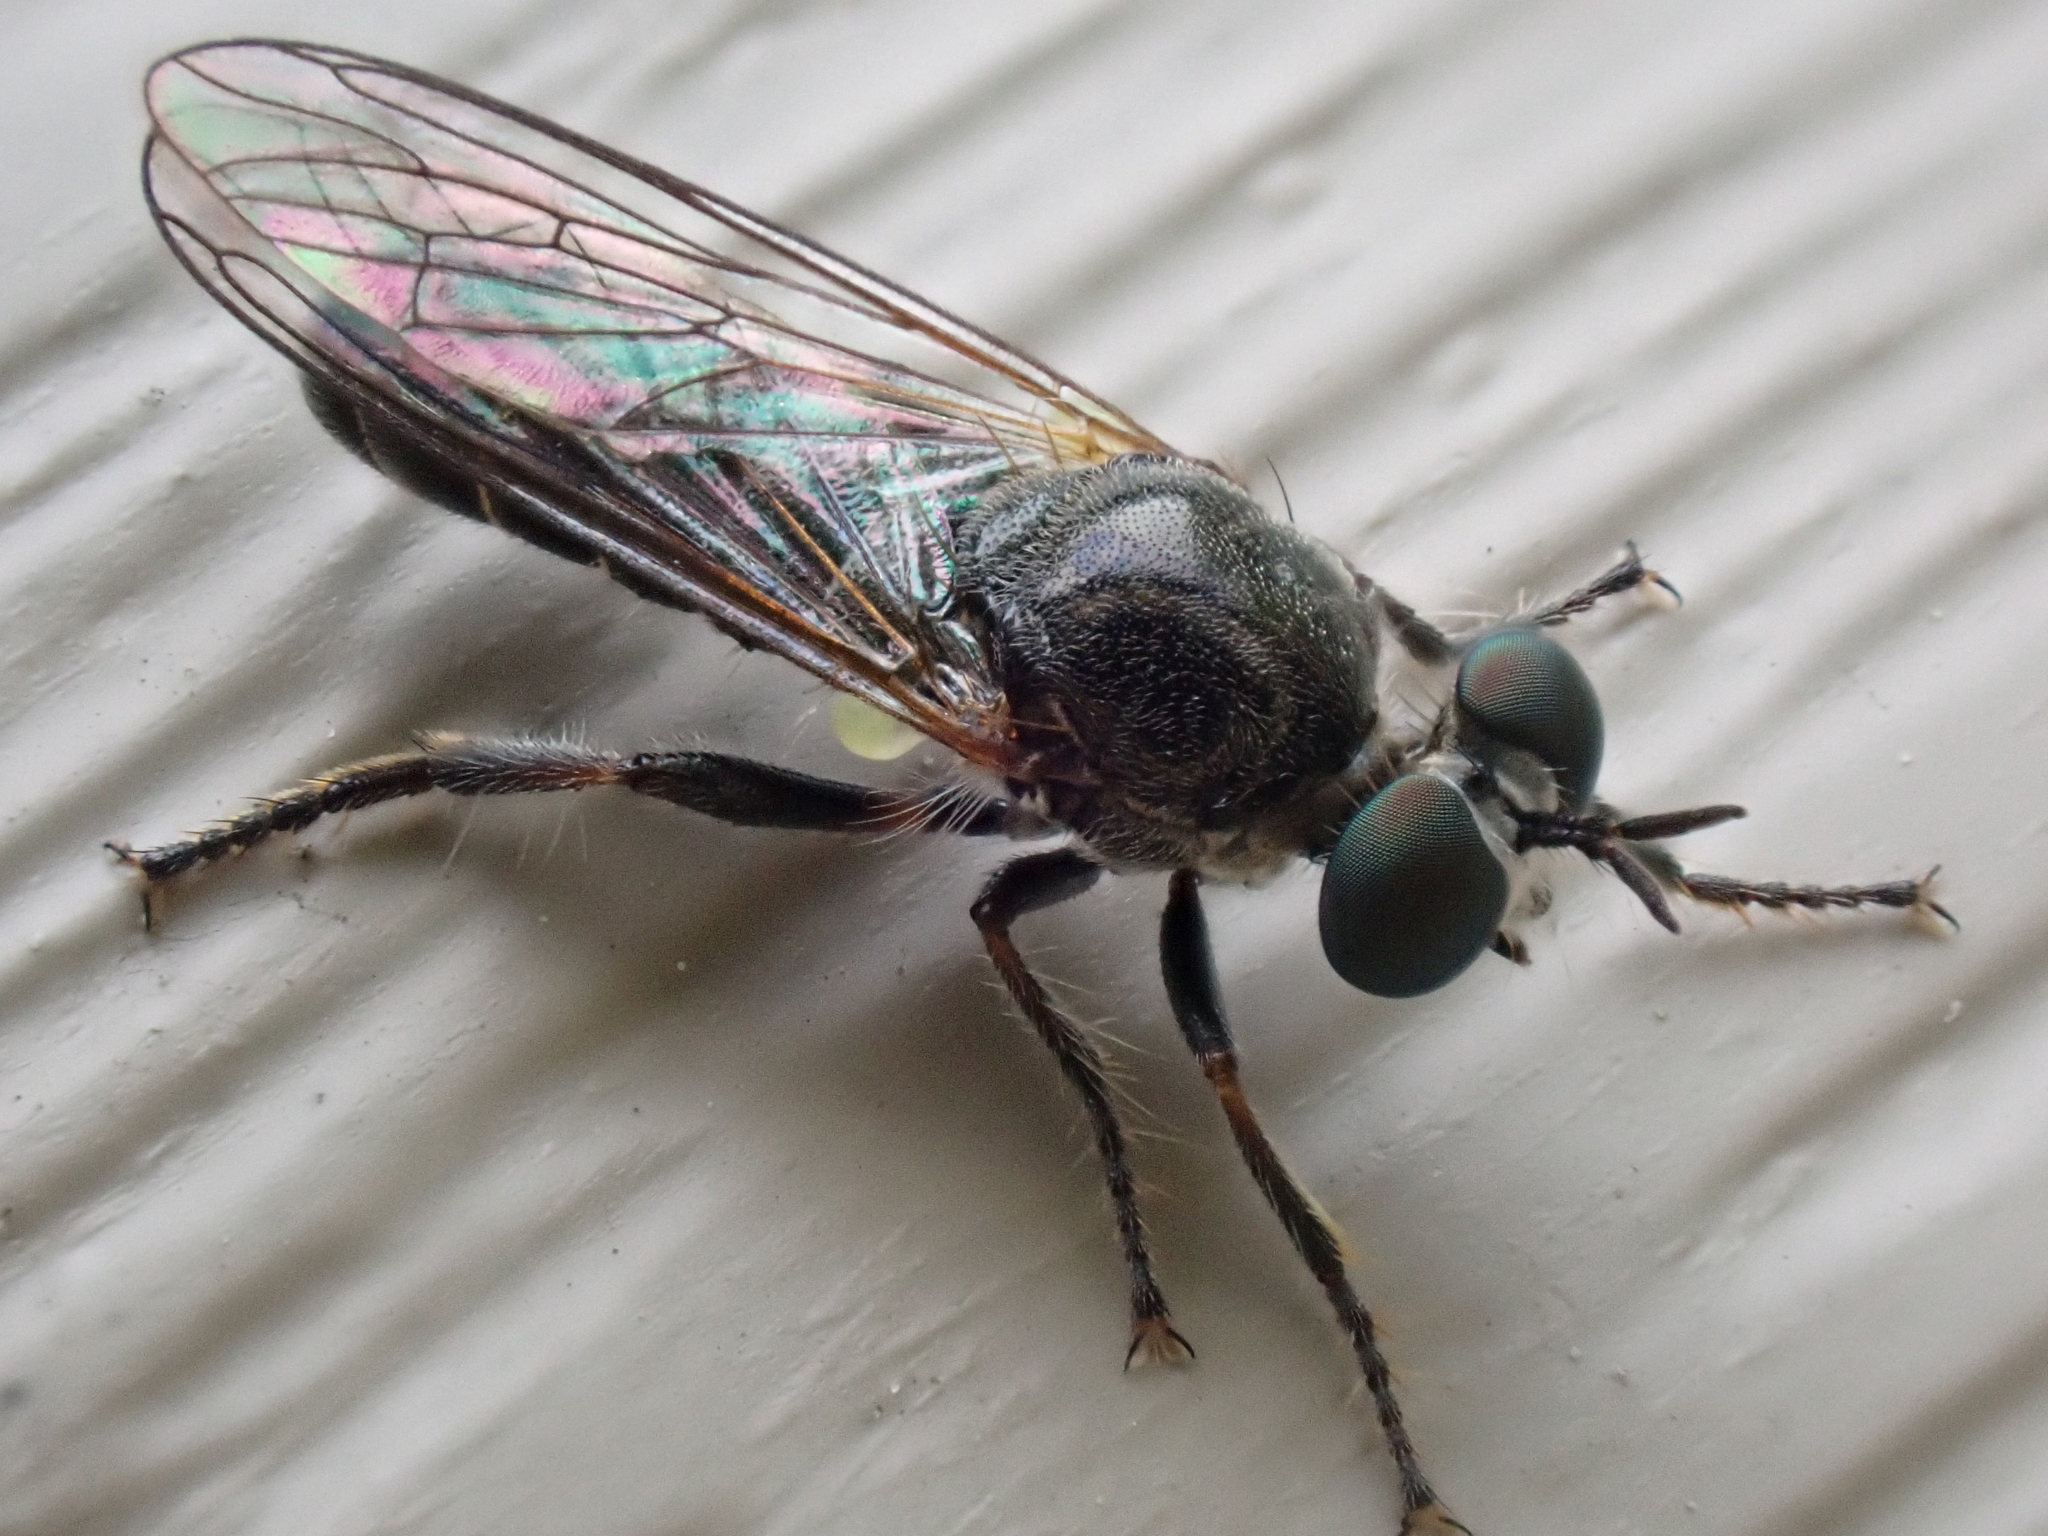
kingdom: Animalia
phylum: Arthropoda
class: Insecta
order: Diptera
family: Asilidae
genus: Atomosia
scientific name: Atomosia puella
